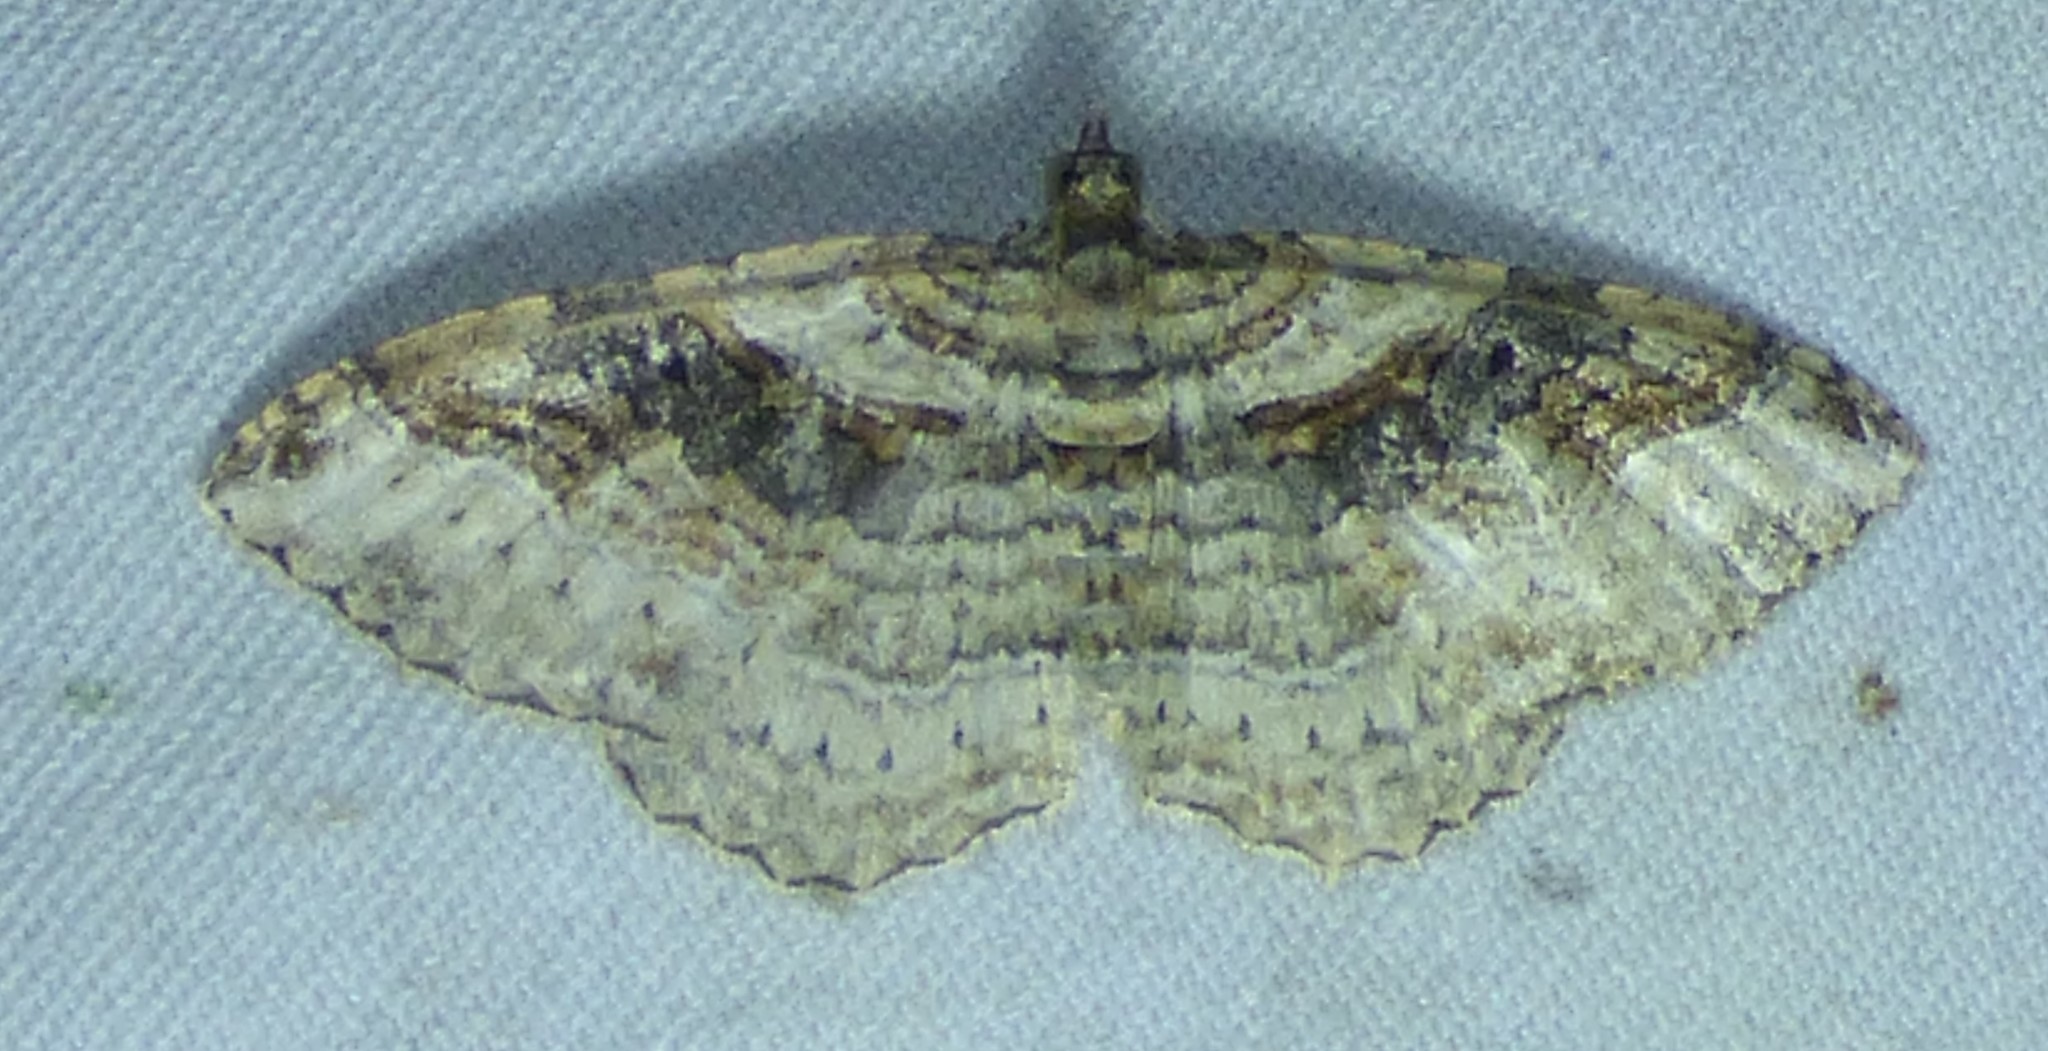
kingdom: Animalia
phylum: Arthropoda
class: Insecta
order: Lepidoptera
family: Geometridae
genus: Costaconvexa
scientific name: Costaconvexa centrostrigaria
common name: Bent-line carpet
